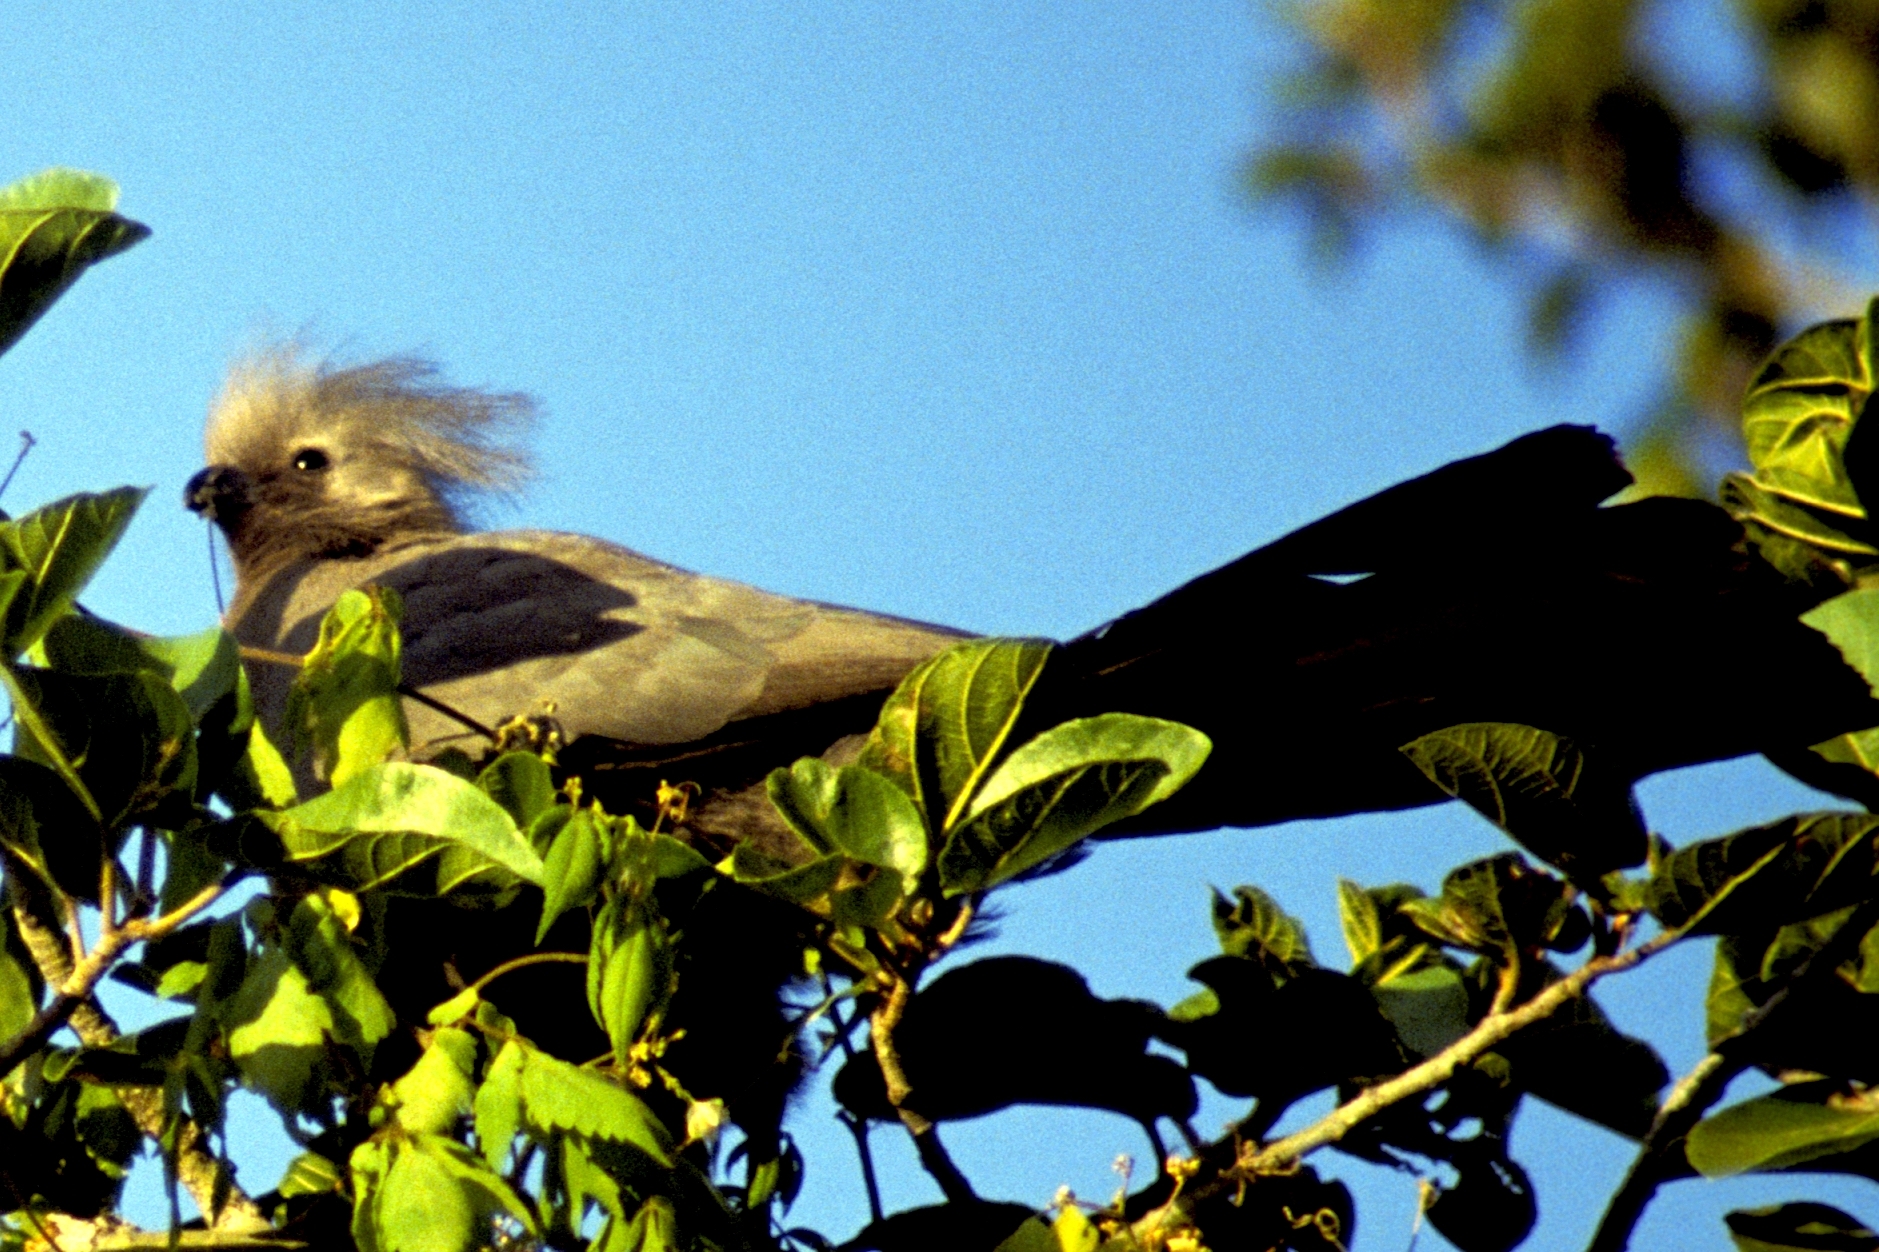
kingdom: Animalia
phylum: Chordata
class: Aves
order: Musophagiformes
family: Musophagidae
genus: Corythaixoides
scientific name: Corythaixoides concolor
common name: Grey go-away-bird
